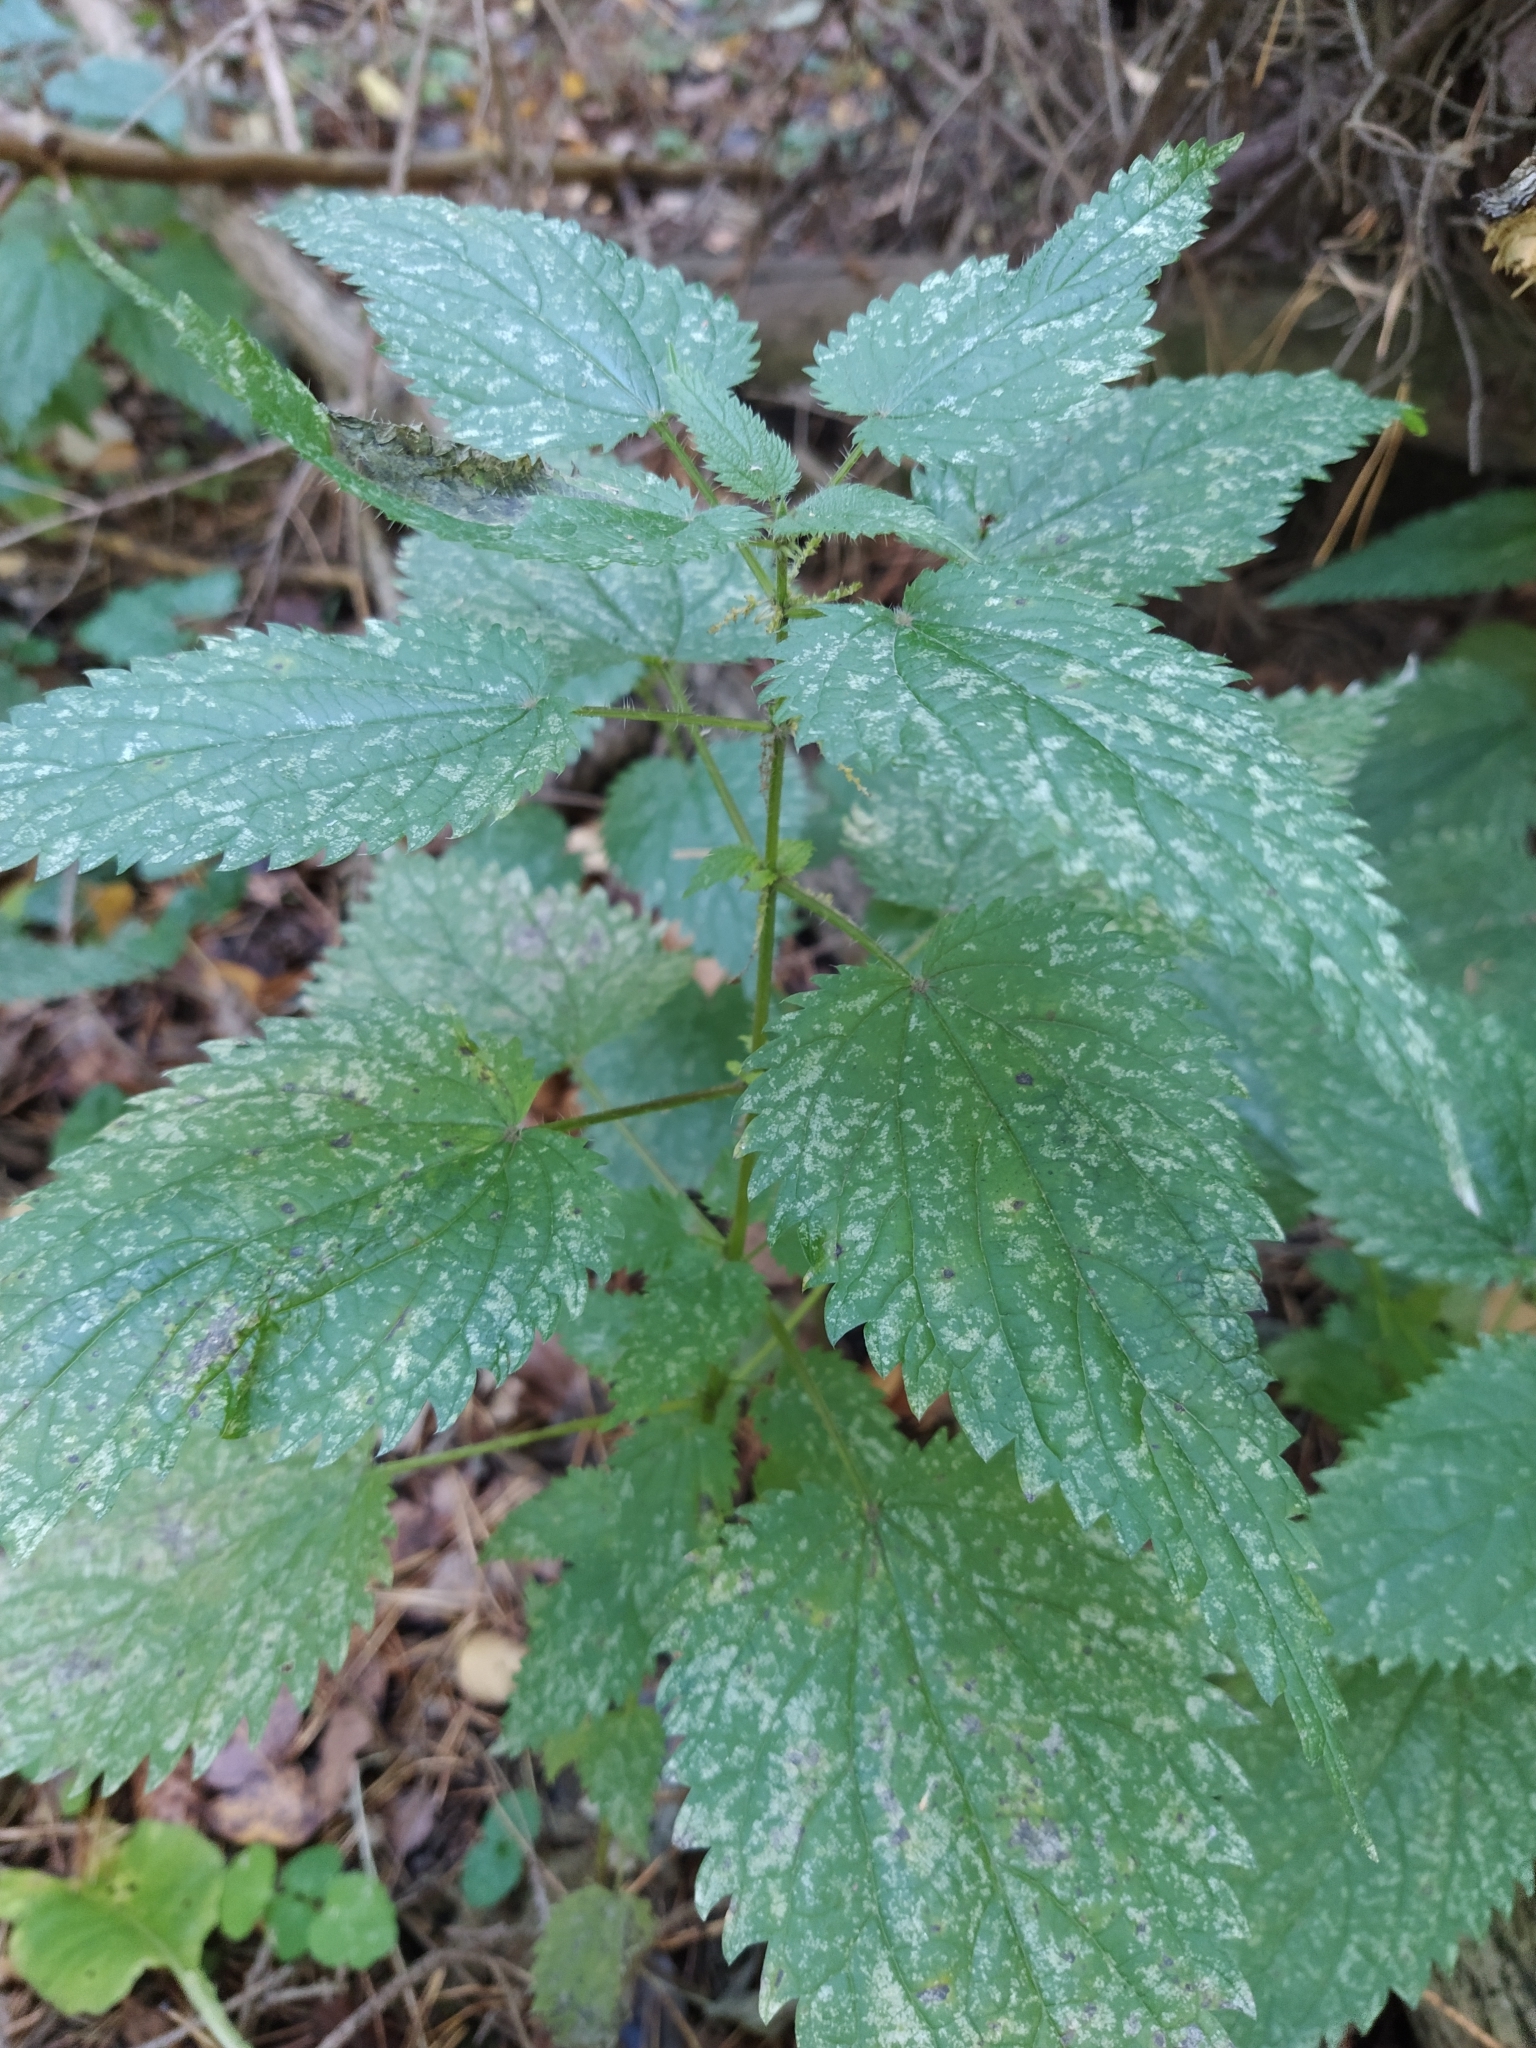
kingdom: Plantae
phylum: Tracheophyta
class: Magnoliopsida
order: Rosales
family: Urticaceae
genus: Urtica
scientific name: Urtica dioica
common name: Common nettle
